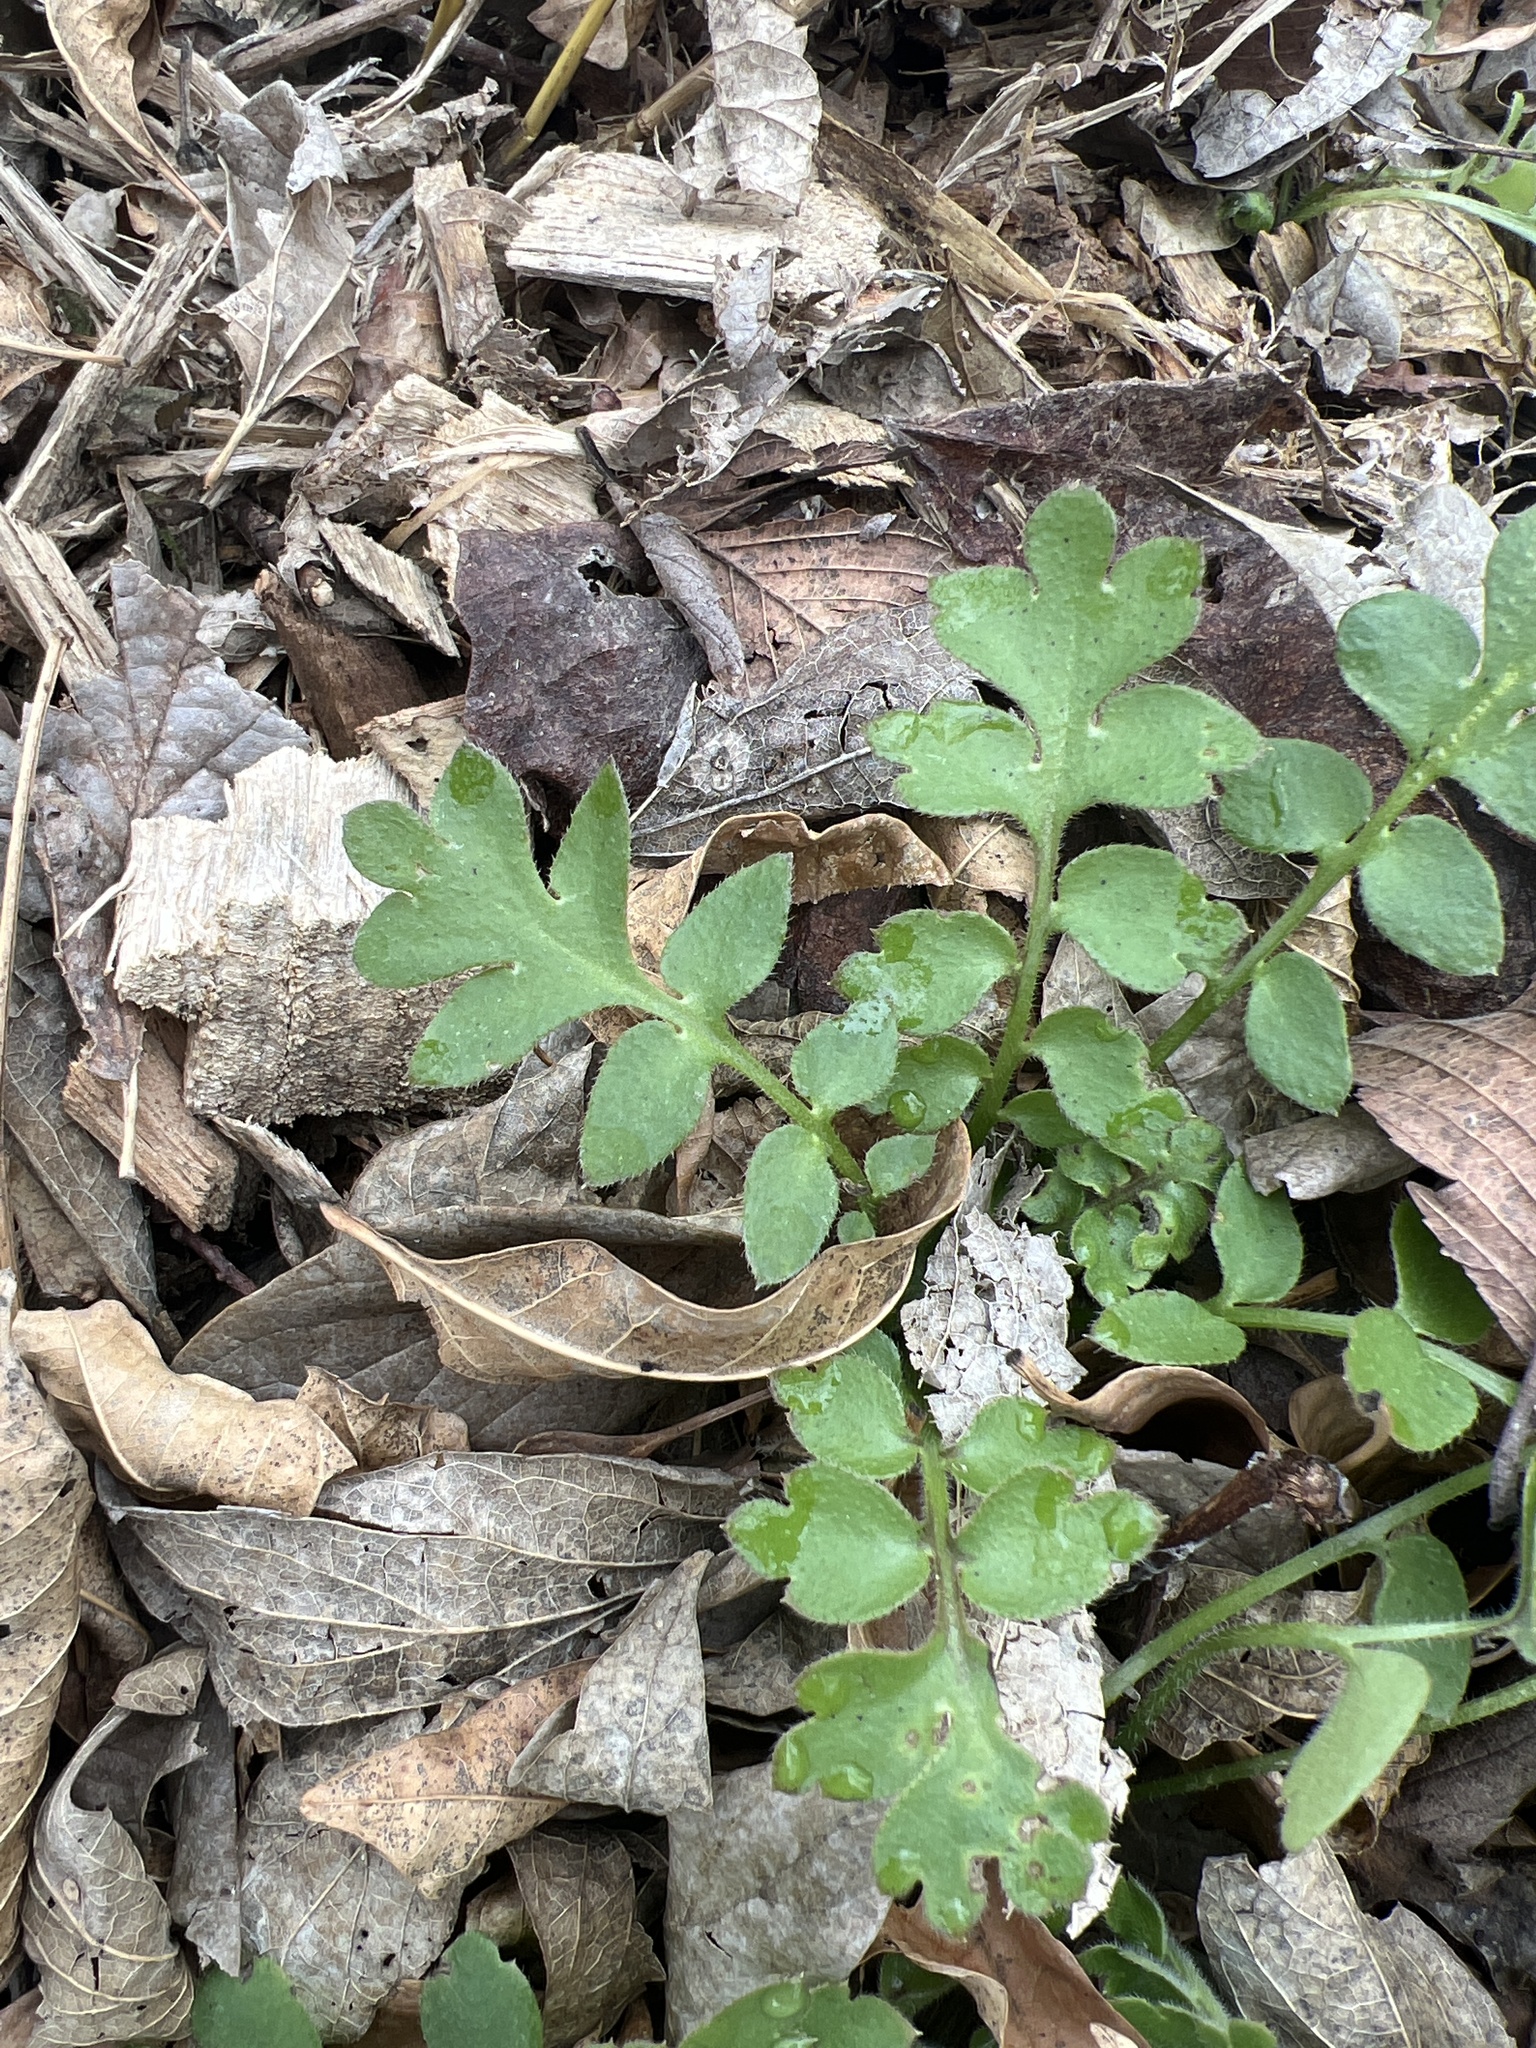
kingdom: Plantae
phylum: Tracheophyta
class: Magnoliopsida
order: Boraginales
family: Hydrophyllaceae
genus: Nemophila
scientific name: Nemophila phacelioides
